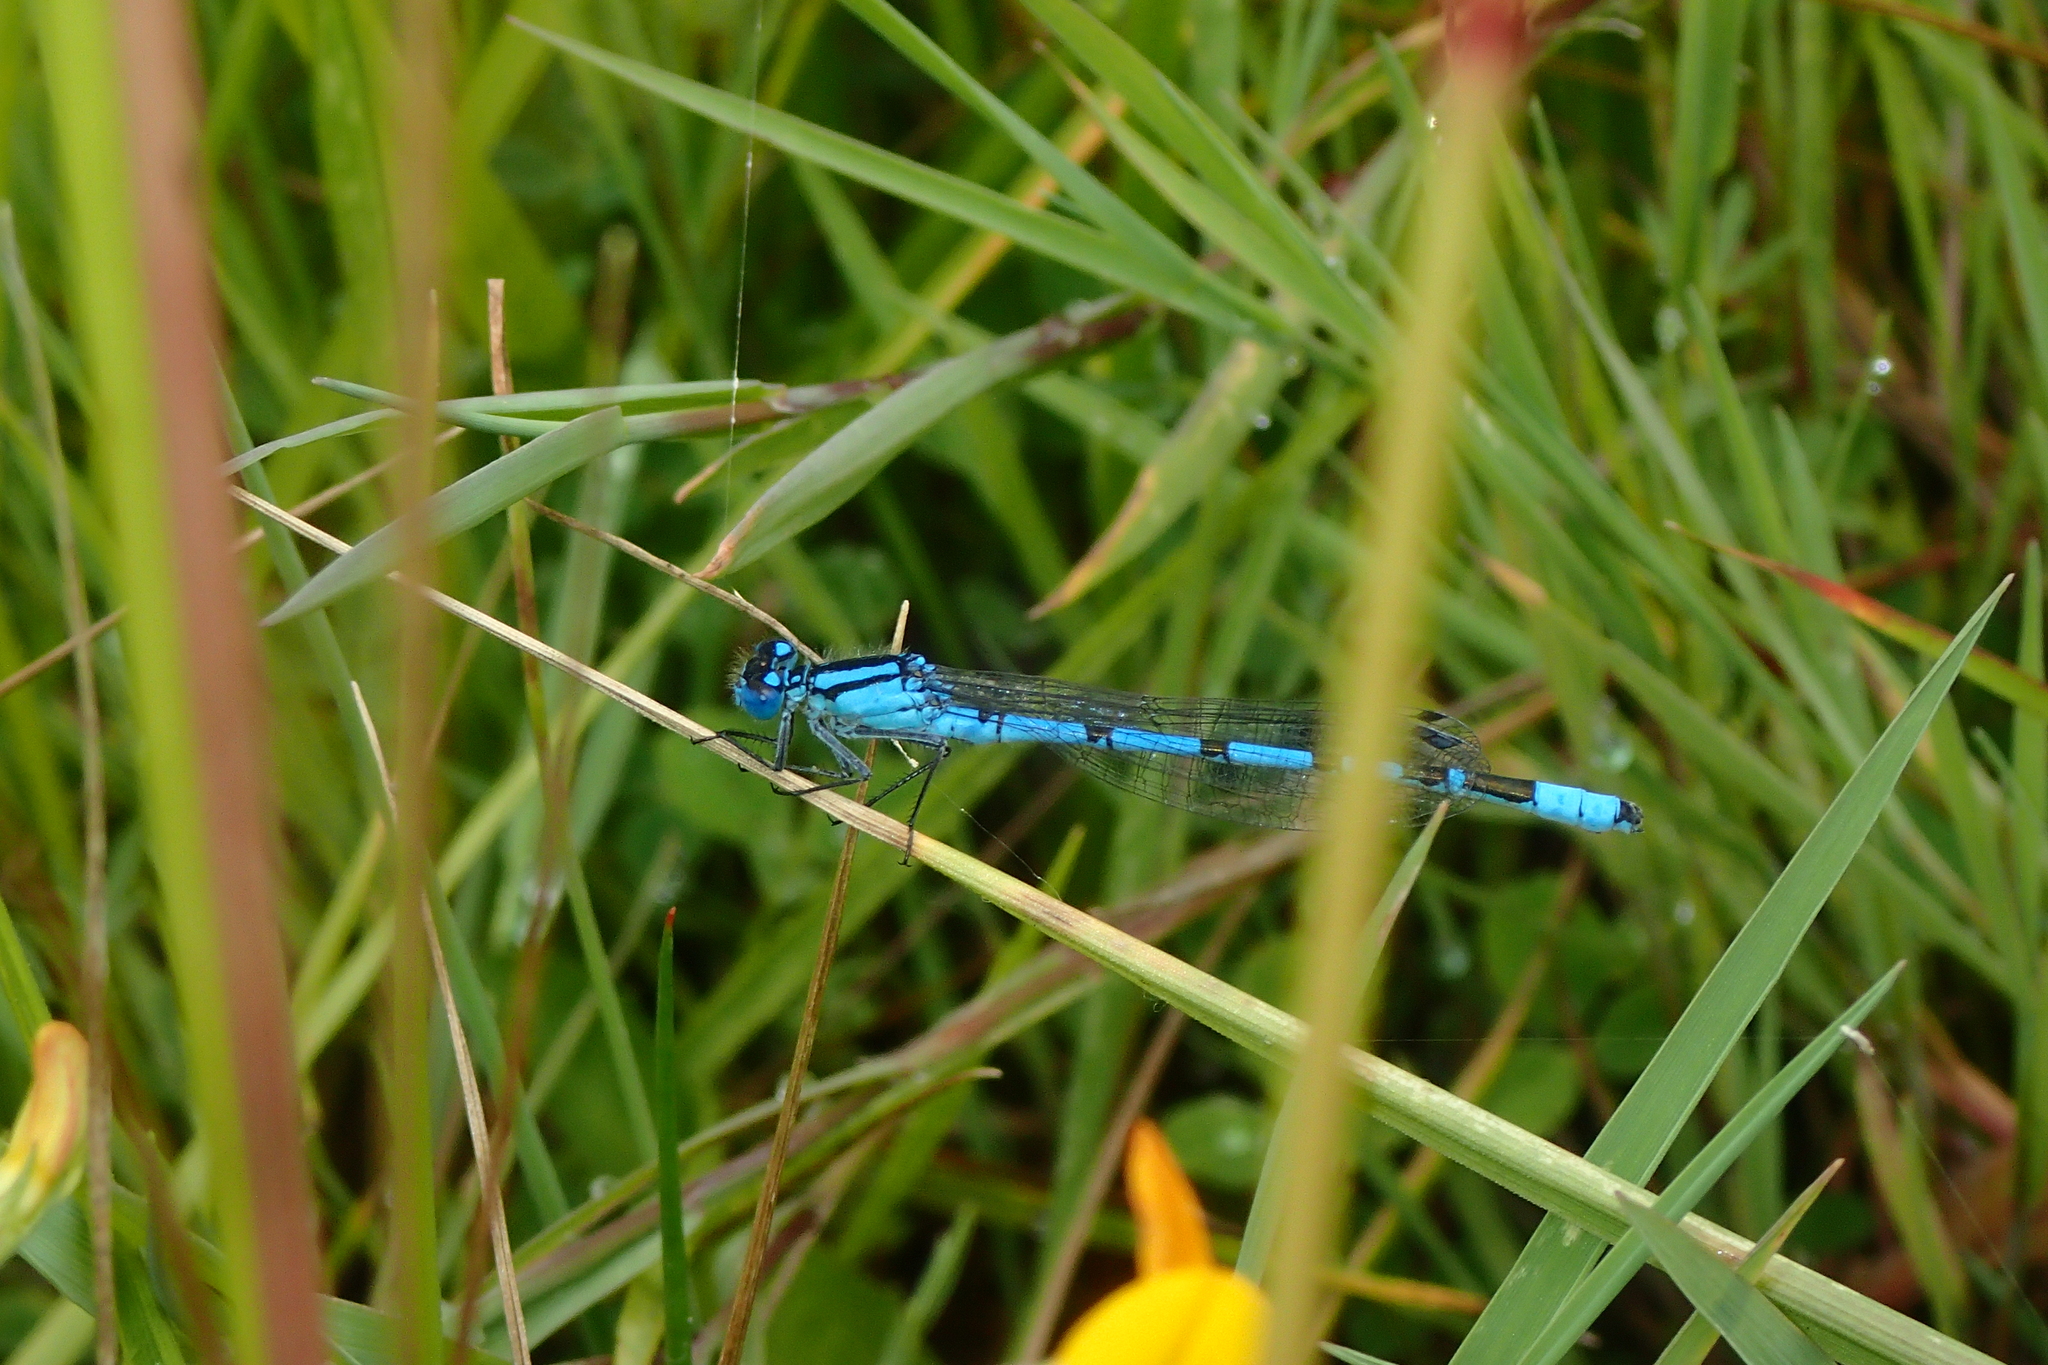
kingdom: Animalia
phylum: Arthropoda
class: Insecta
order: Odonata
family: Coenagrionidae
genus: Enallagma
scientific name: Enallagma cyathigerum
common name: Common blue damselfly
